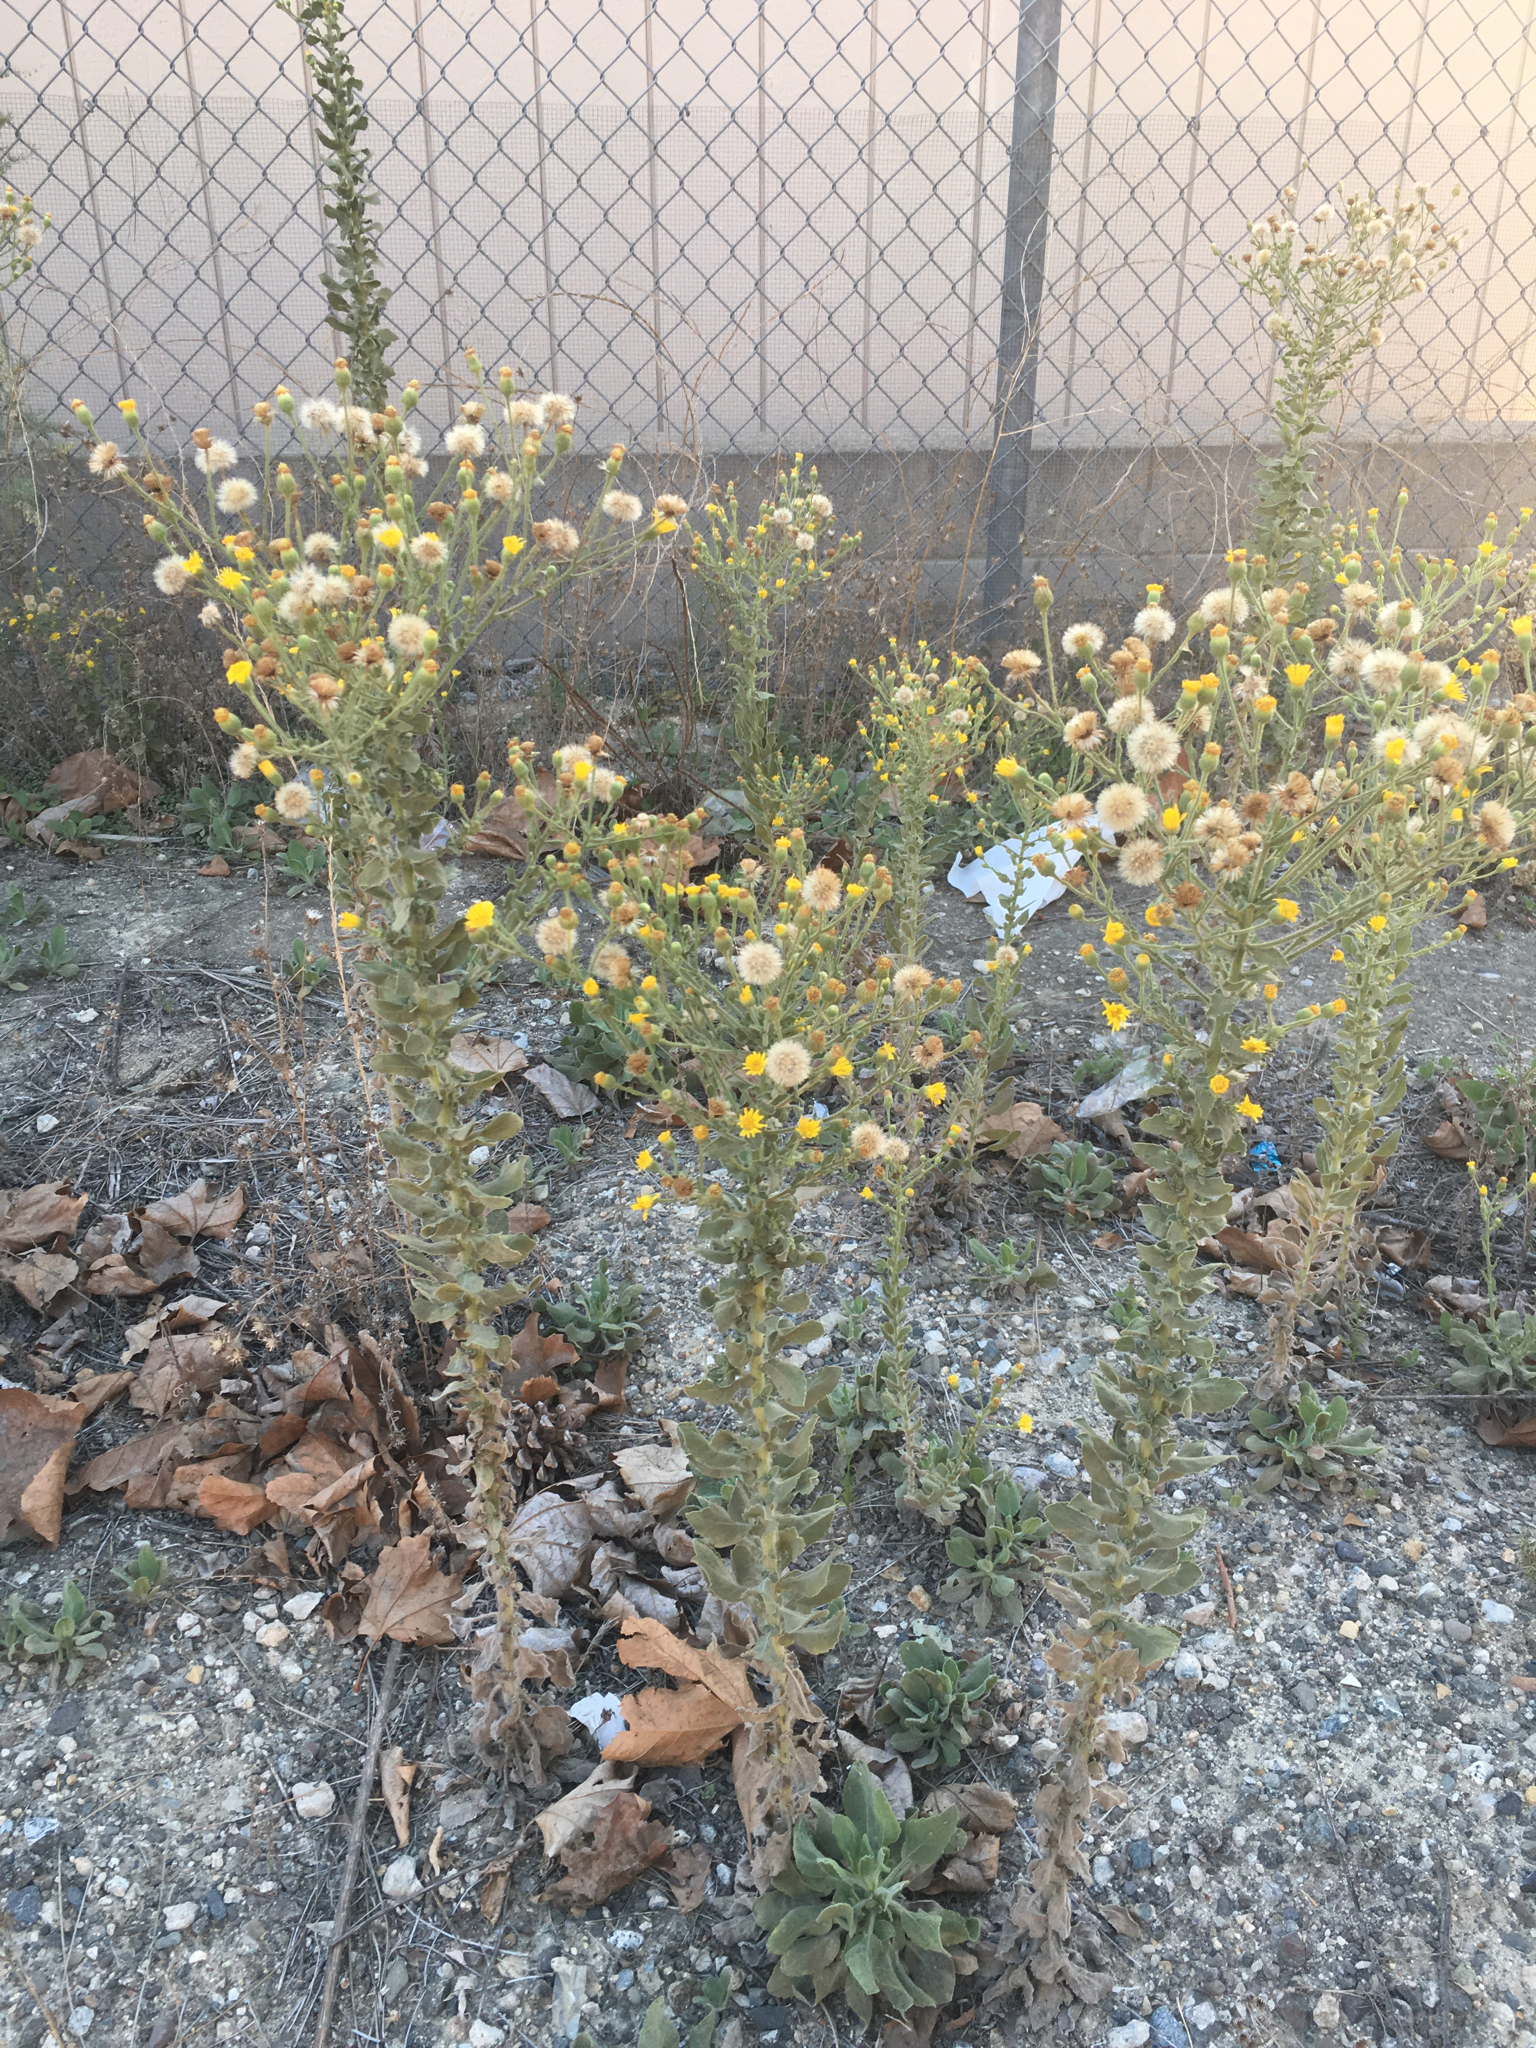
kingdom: Plantae
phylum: Tracheophyta
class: Magnoliopsida
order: Asterales
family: Asteraceae
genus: Heterotheca
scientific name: Heterotheca grandiflora
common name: Telegraphweed
